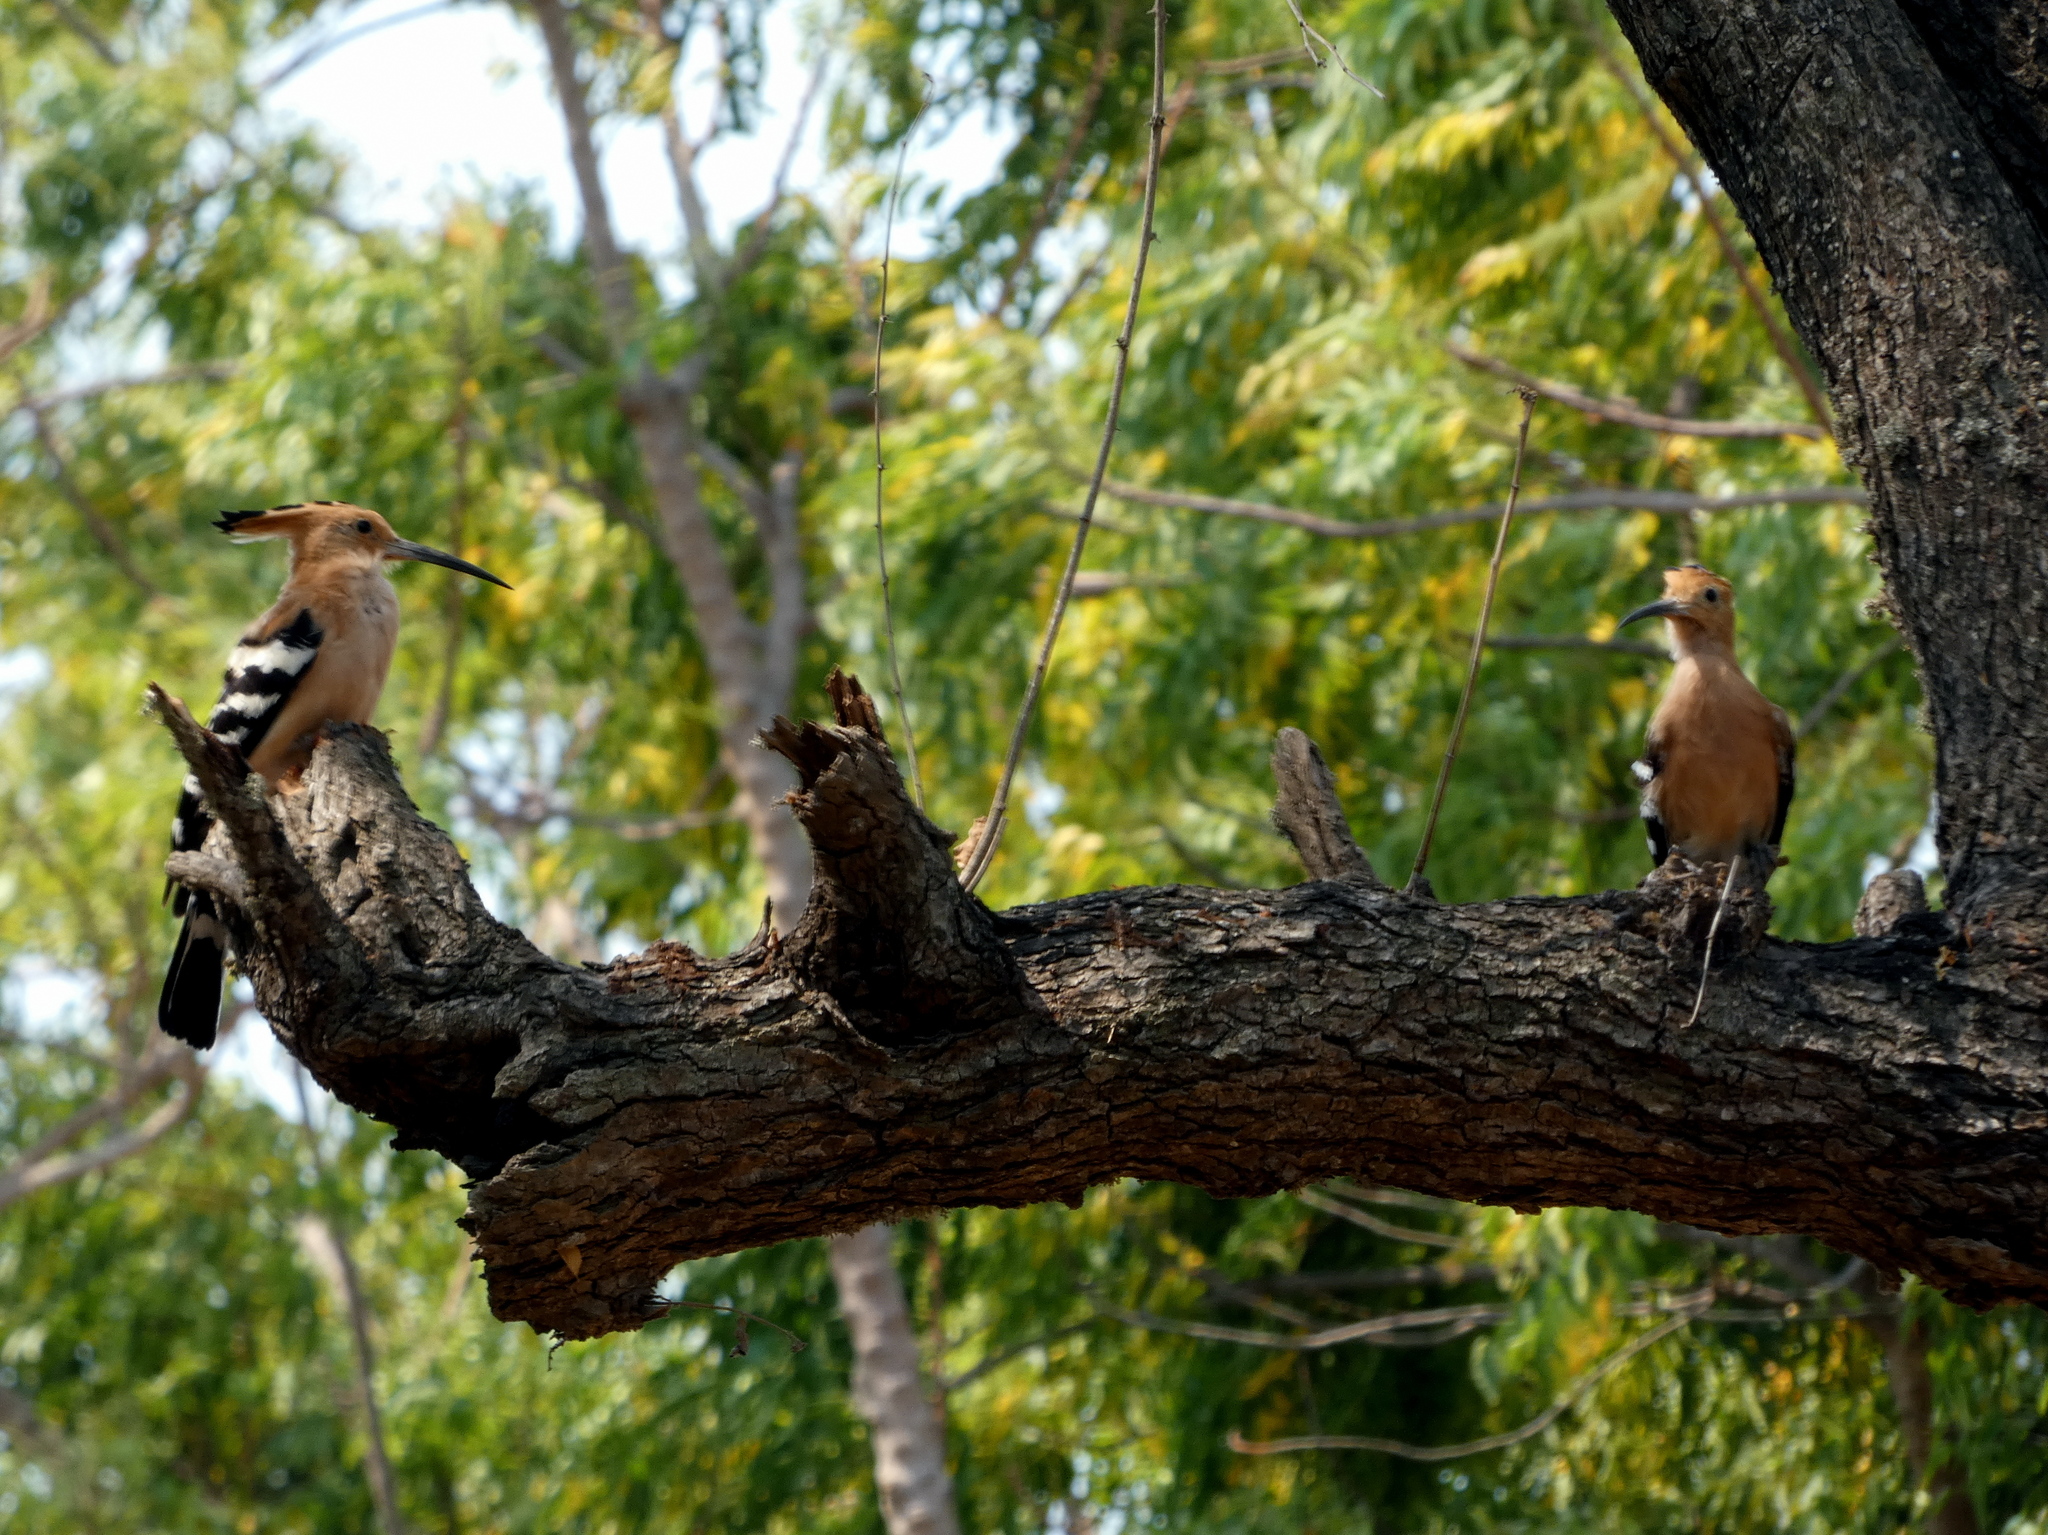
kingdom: Animalia
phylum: Chordata
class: Aves
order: Bucerotiformes
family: Upupidae
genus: Upupa
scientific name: Upupa marginata
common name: Madagascar hoopoe
